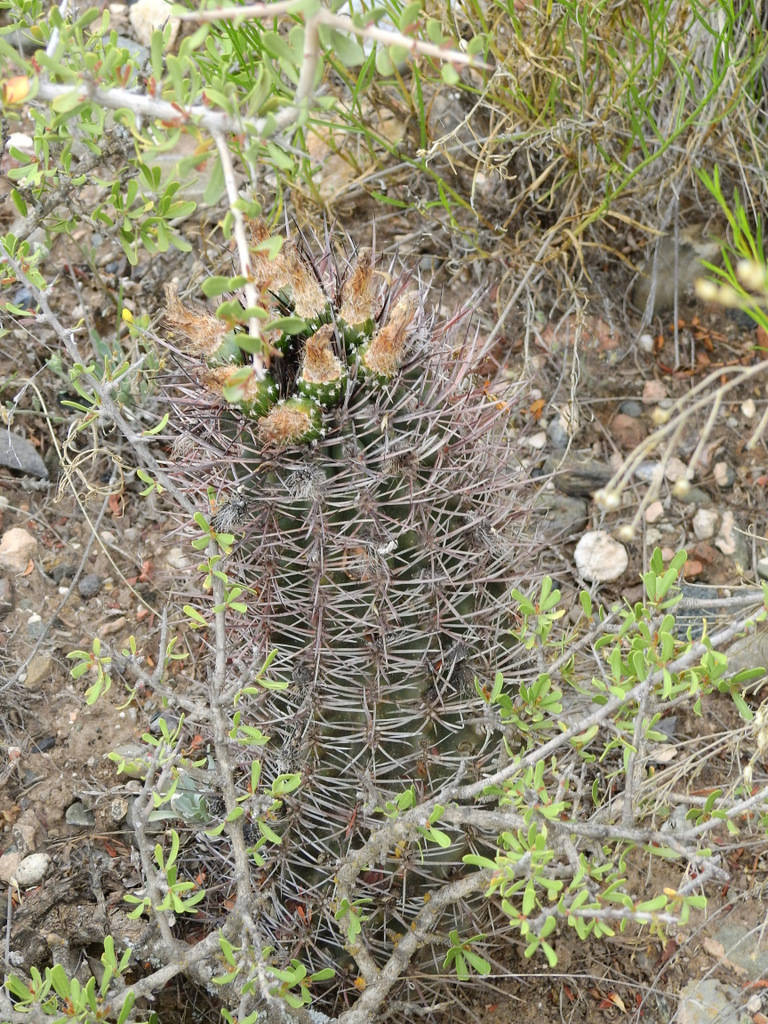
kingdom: Plantae
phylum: Tracheophyta
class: Magnoliopsida
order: Caryophyllales
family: Cactaceae
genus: Eriosyce
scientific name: Eriosyce strausiana
